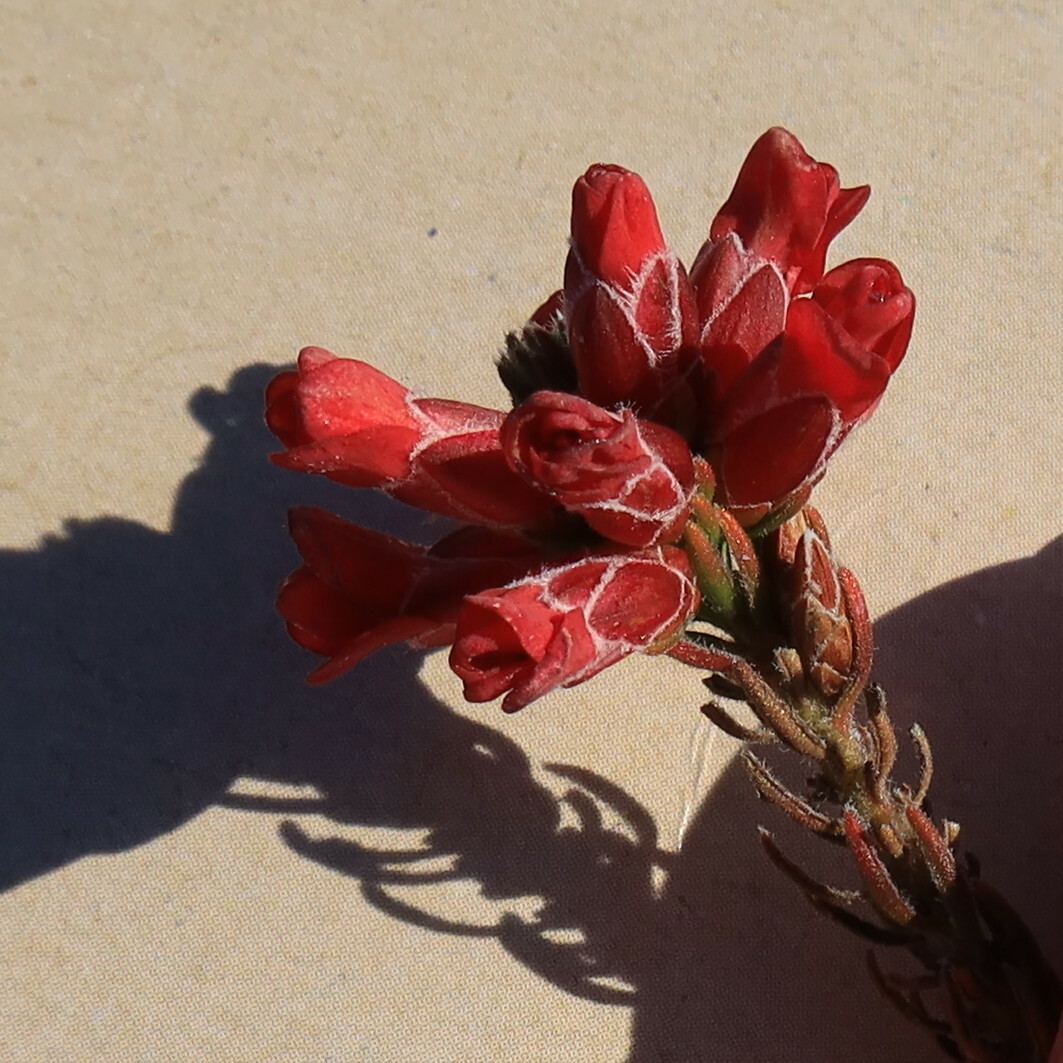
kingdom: Plantae
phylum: Tracheophyta
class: Magnoliopsida
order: Bruniales
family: Bruniaceae
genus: Audouinia
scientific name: Audouinia capitata
